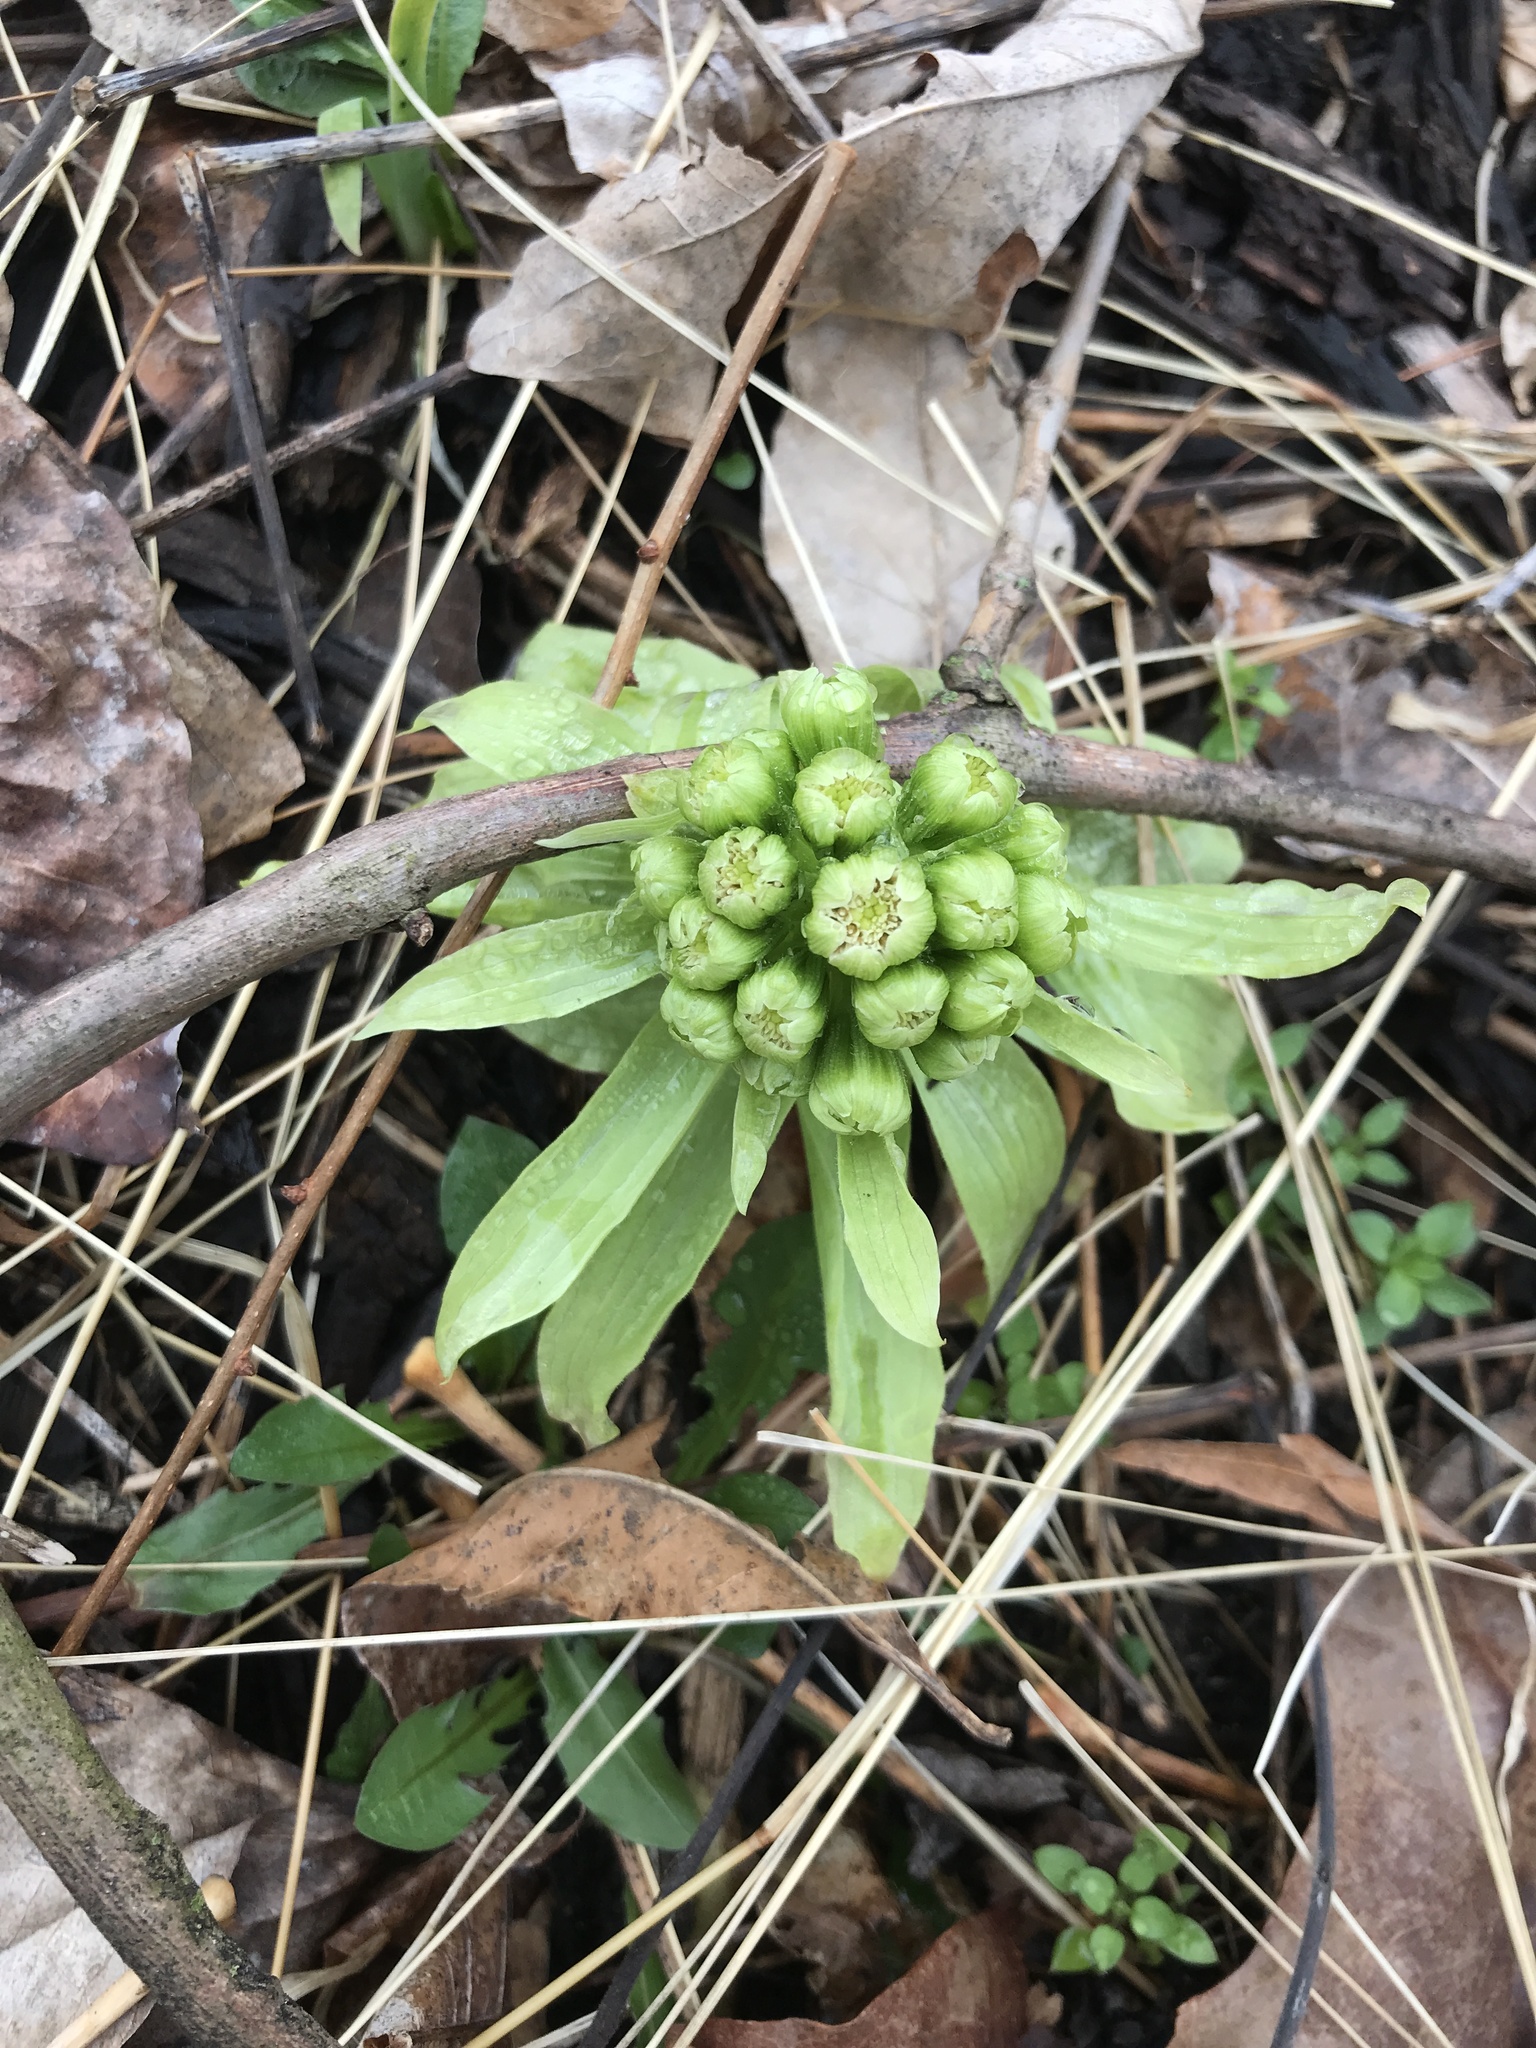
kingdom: Plantae
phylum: Tracheophyta
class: Magnoliopsida
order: Asterales
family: Asteraceae
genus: Petasites
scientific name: Petasites japonicus
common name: Giant butterbur
